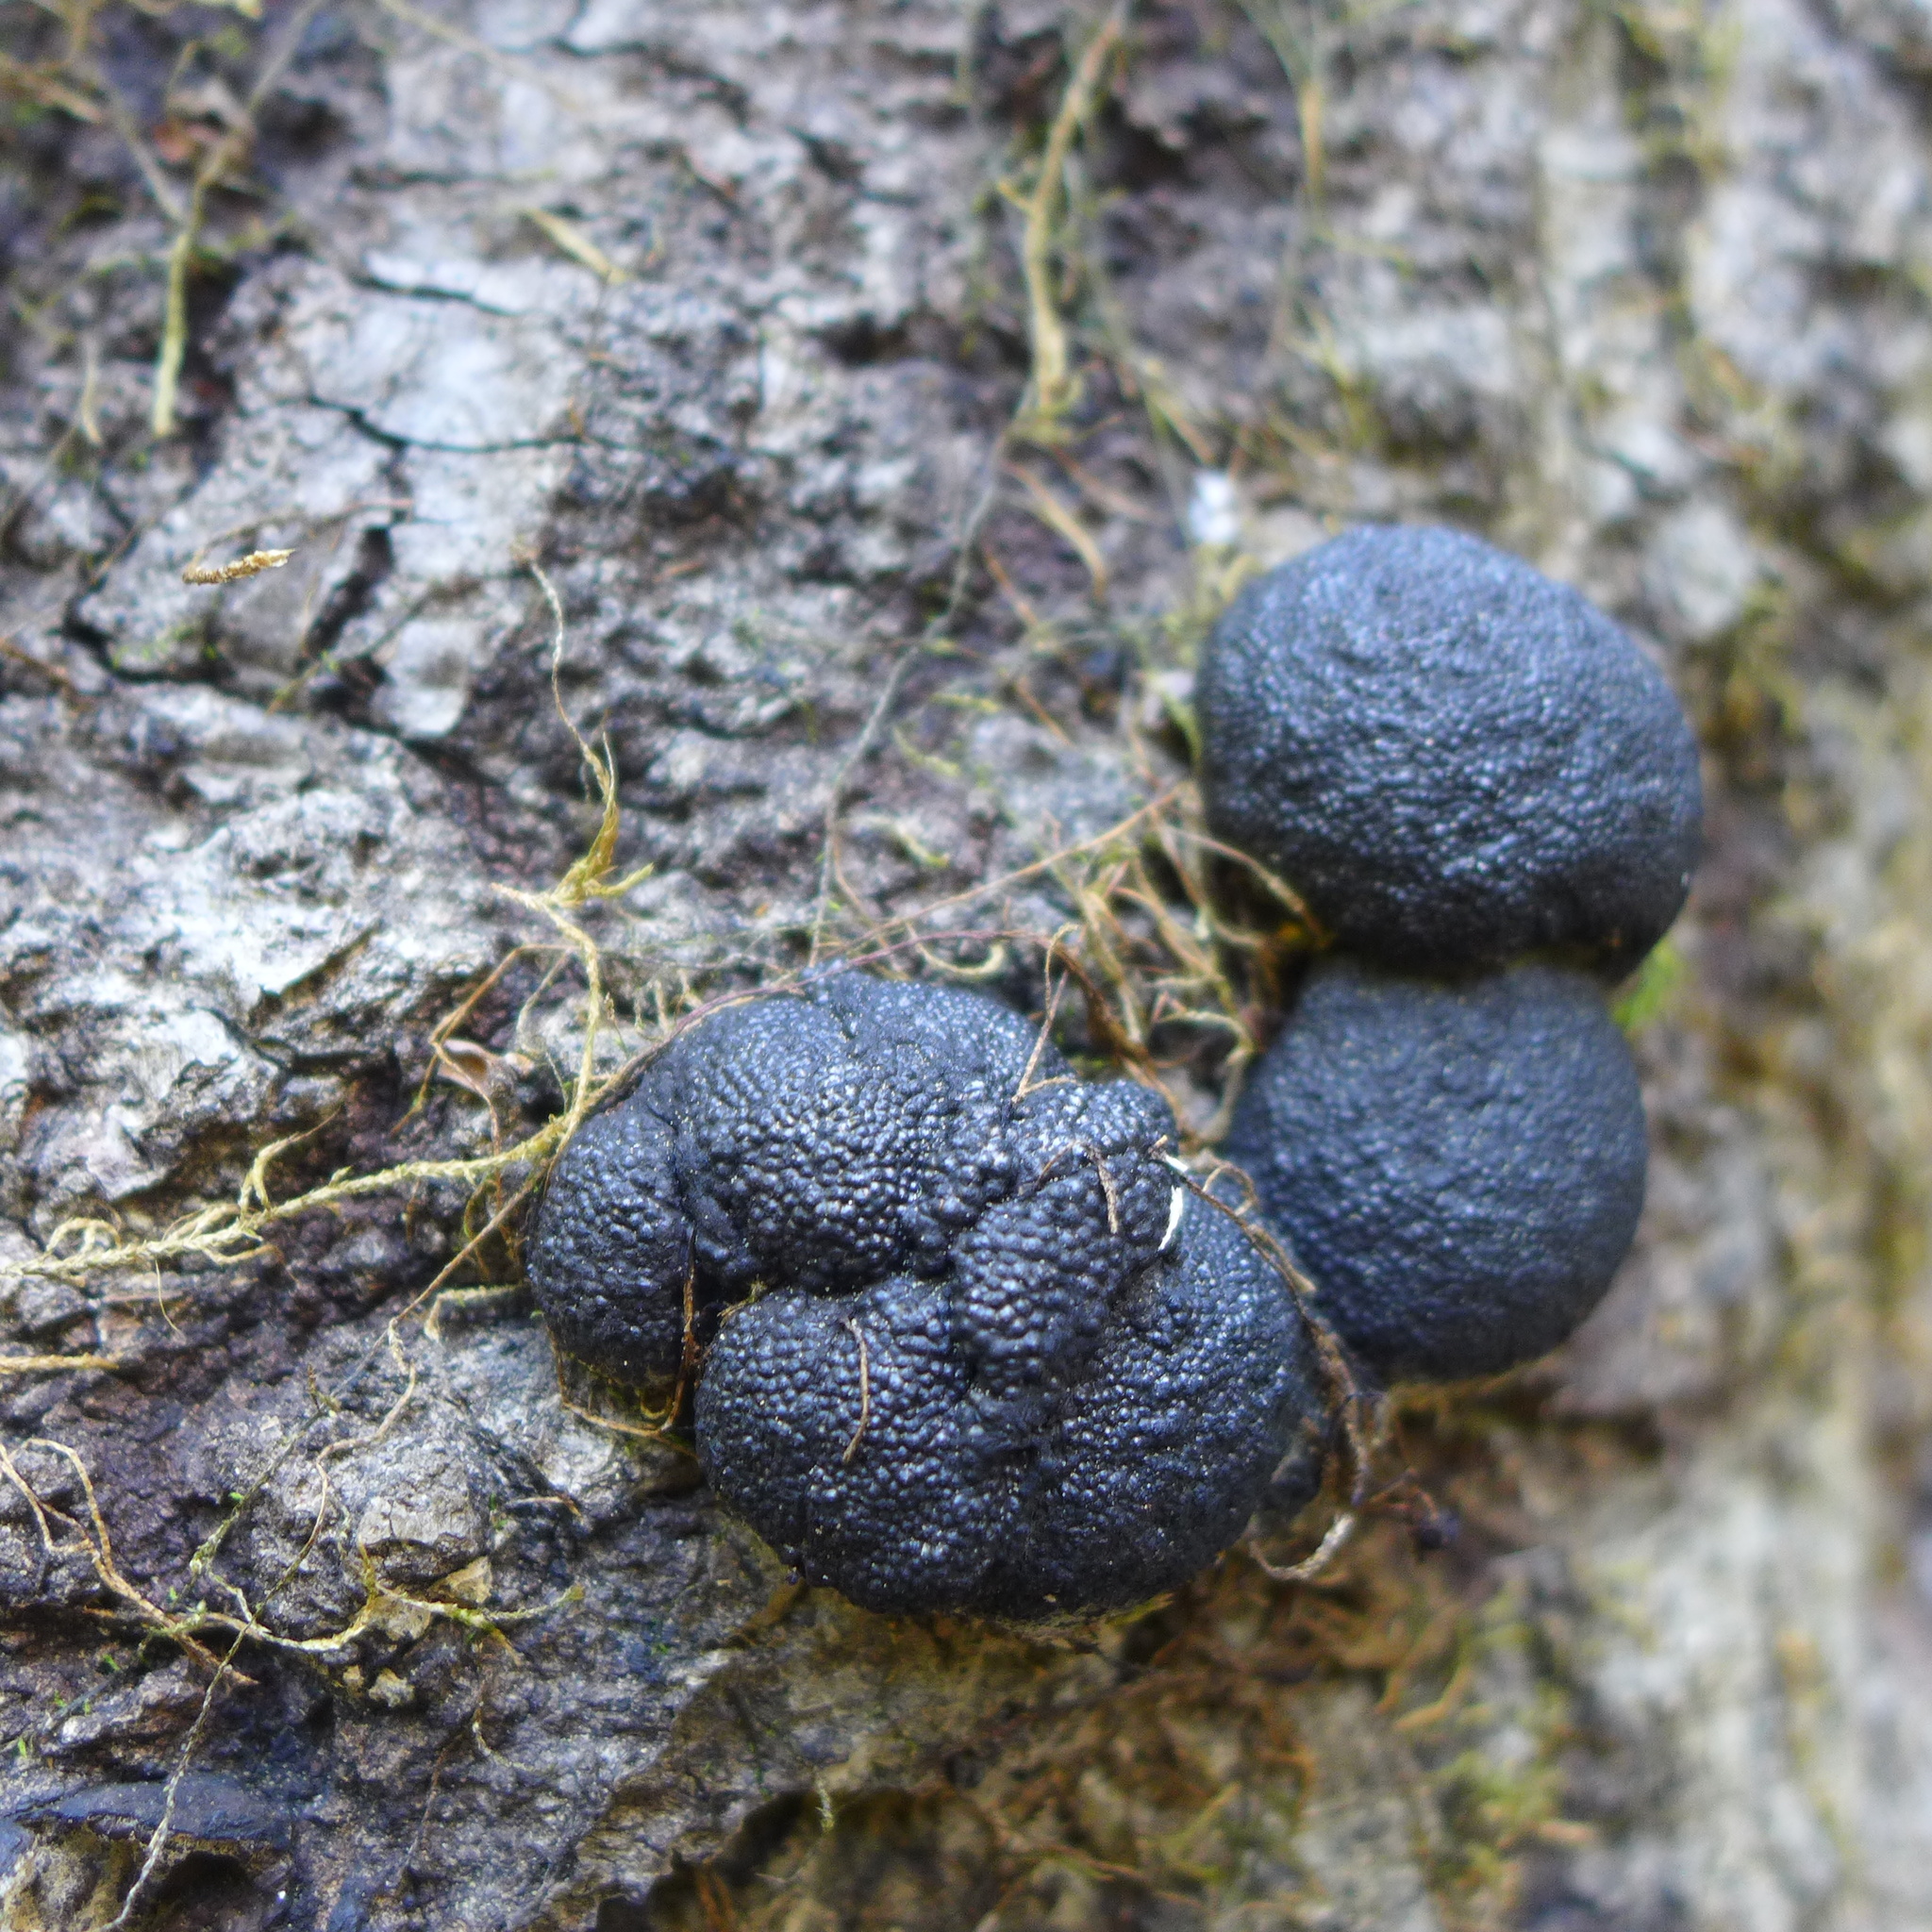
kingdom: Fungi
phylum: Ascomycota
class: Sordariomycetes
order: Xylariales
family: Hypoxylaceae
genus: Annulohypoxylon
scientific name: Annulohypoxylon thouarsianum
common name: Cramp balls
